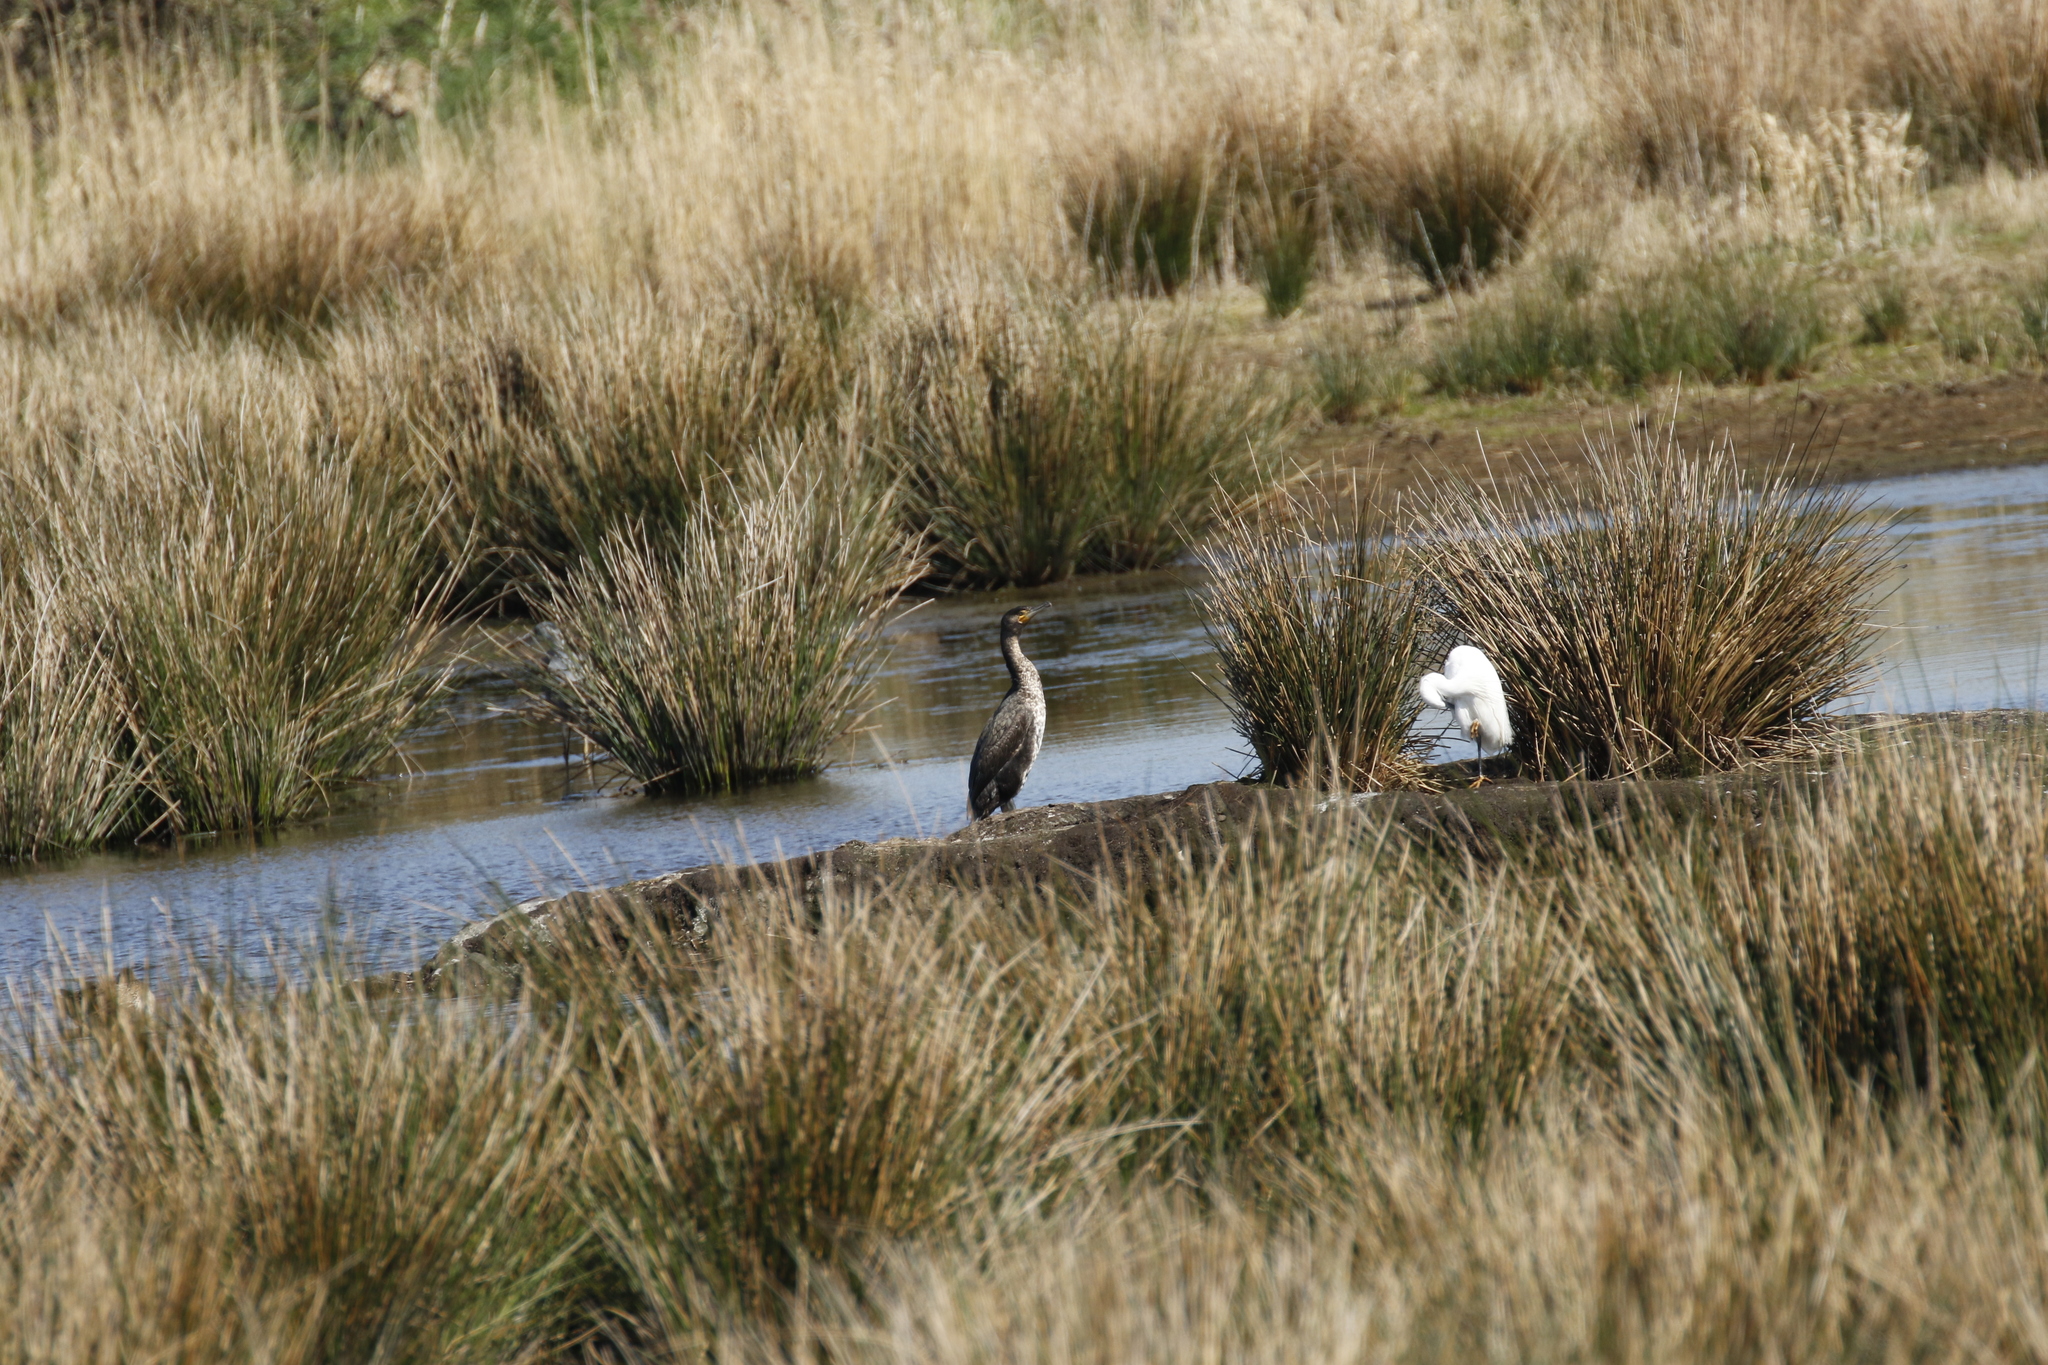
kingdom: Animalia
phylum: Chordata
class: Aves
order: Suliformes
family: Phalacrocoracidae
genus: Phalacrocorax
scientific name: Phalacrocorax carbo
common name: Great cormorant
